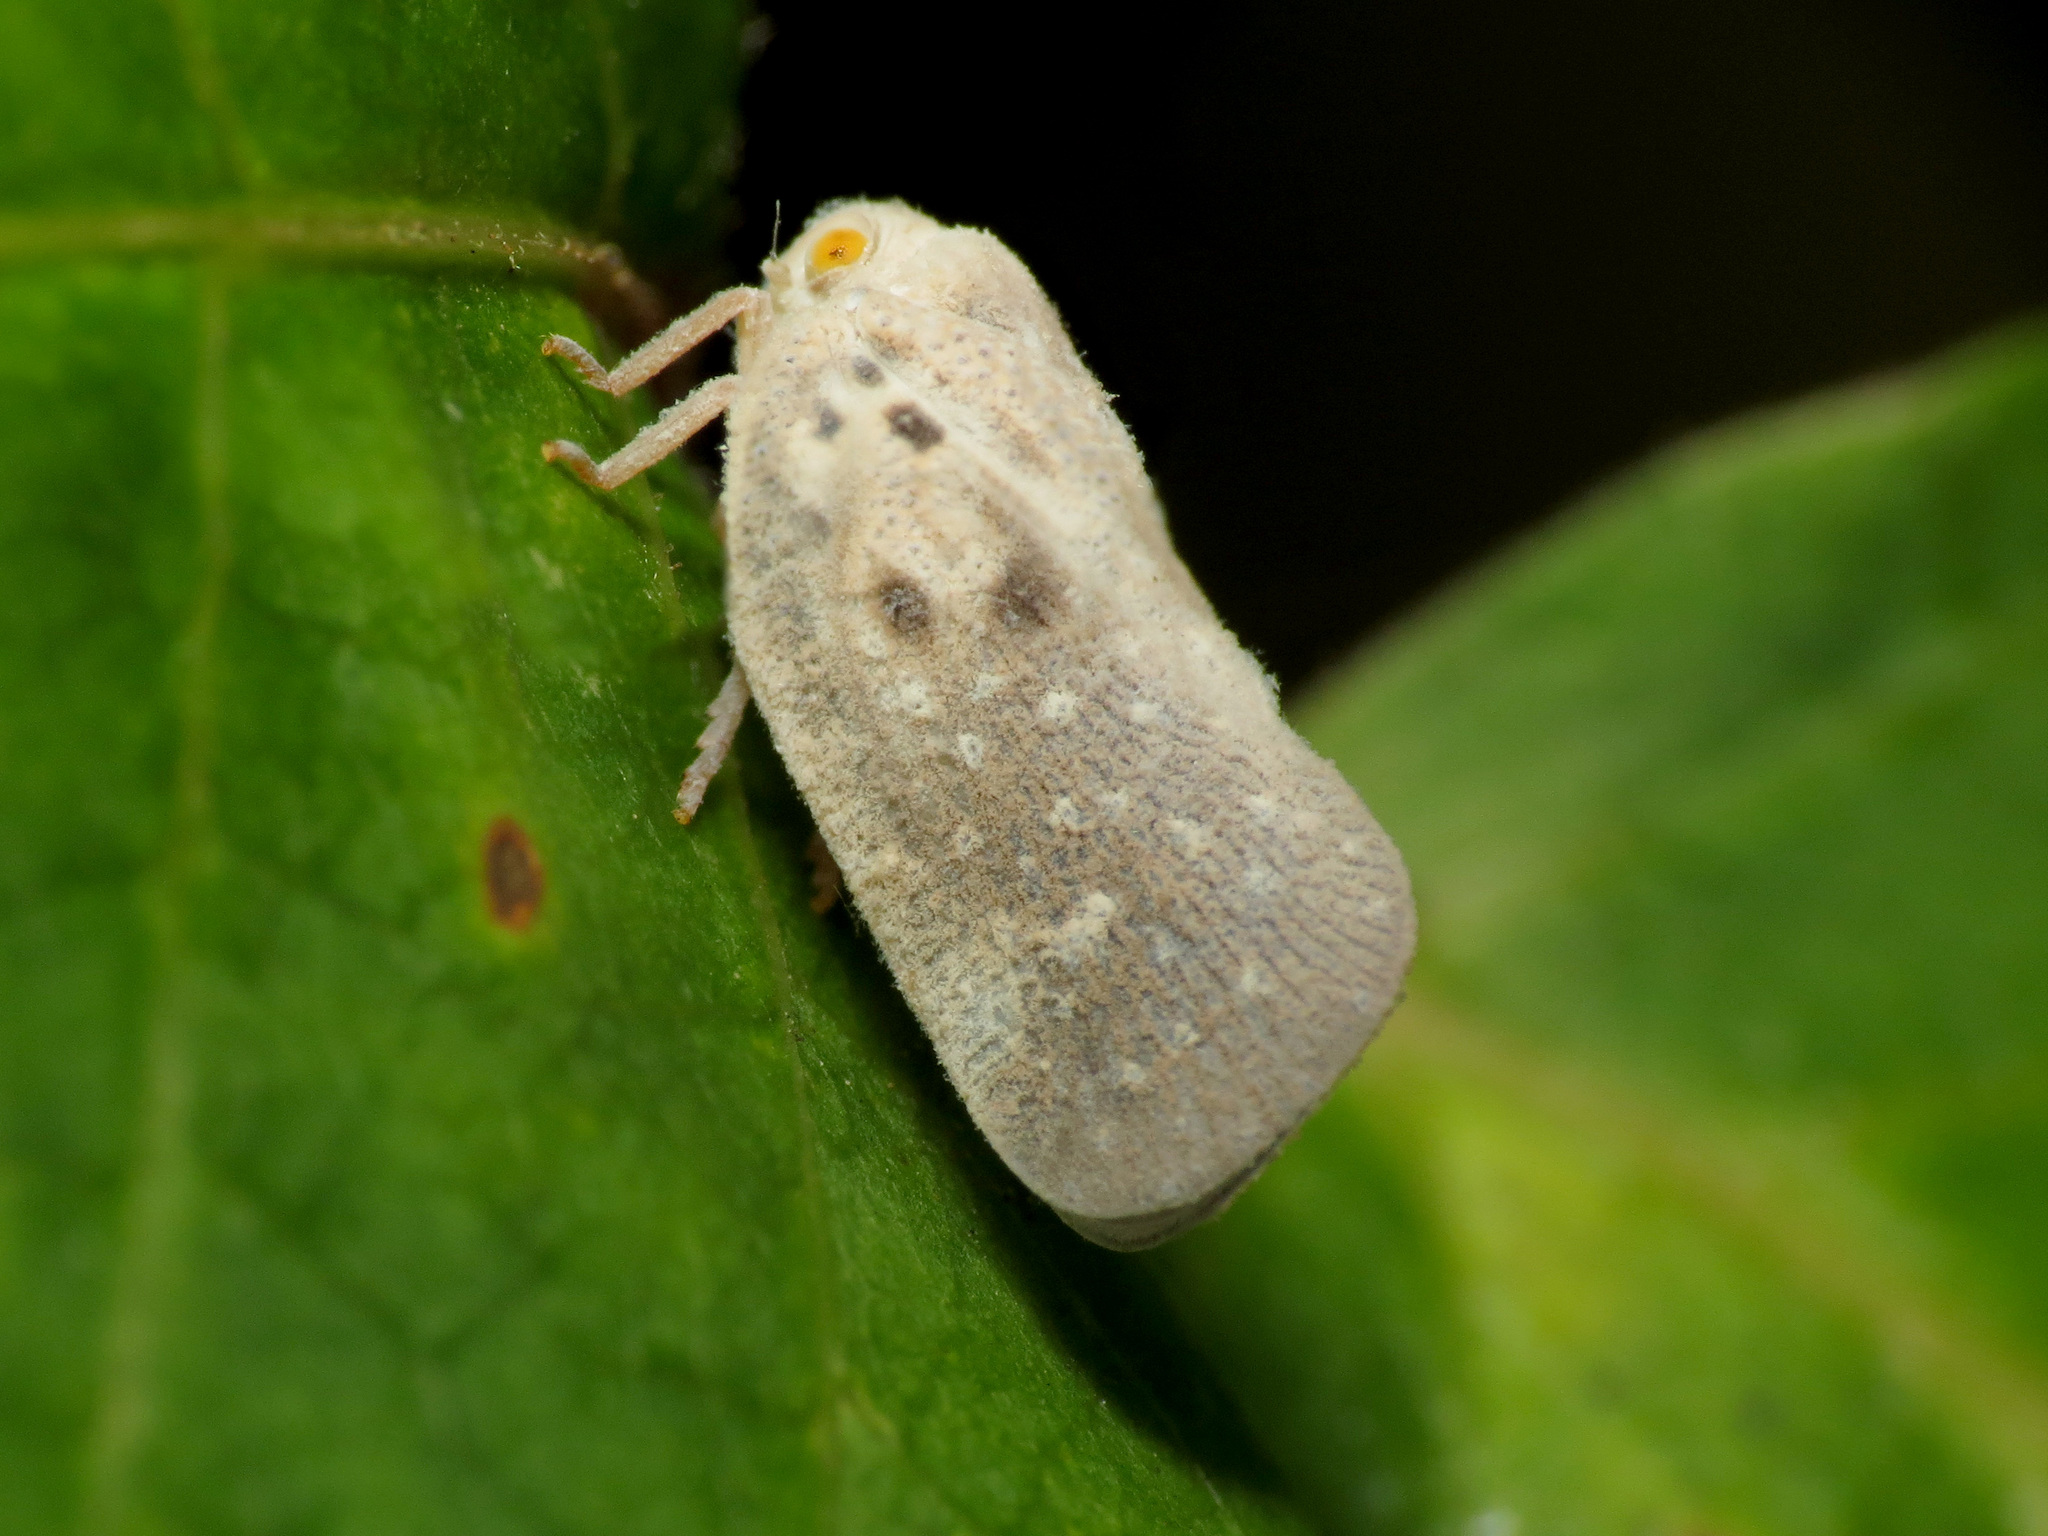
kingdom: Animalia
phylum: Arthropoda
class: Insecta
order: Hemiptera
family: Flatidae
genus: Metcalfa
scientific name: Metcalfa pruinosa
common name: Citrus flatid planthopper
